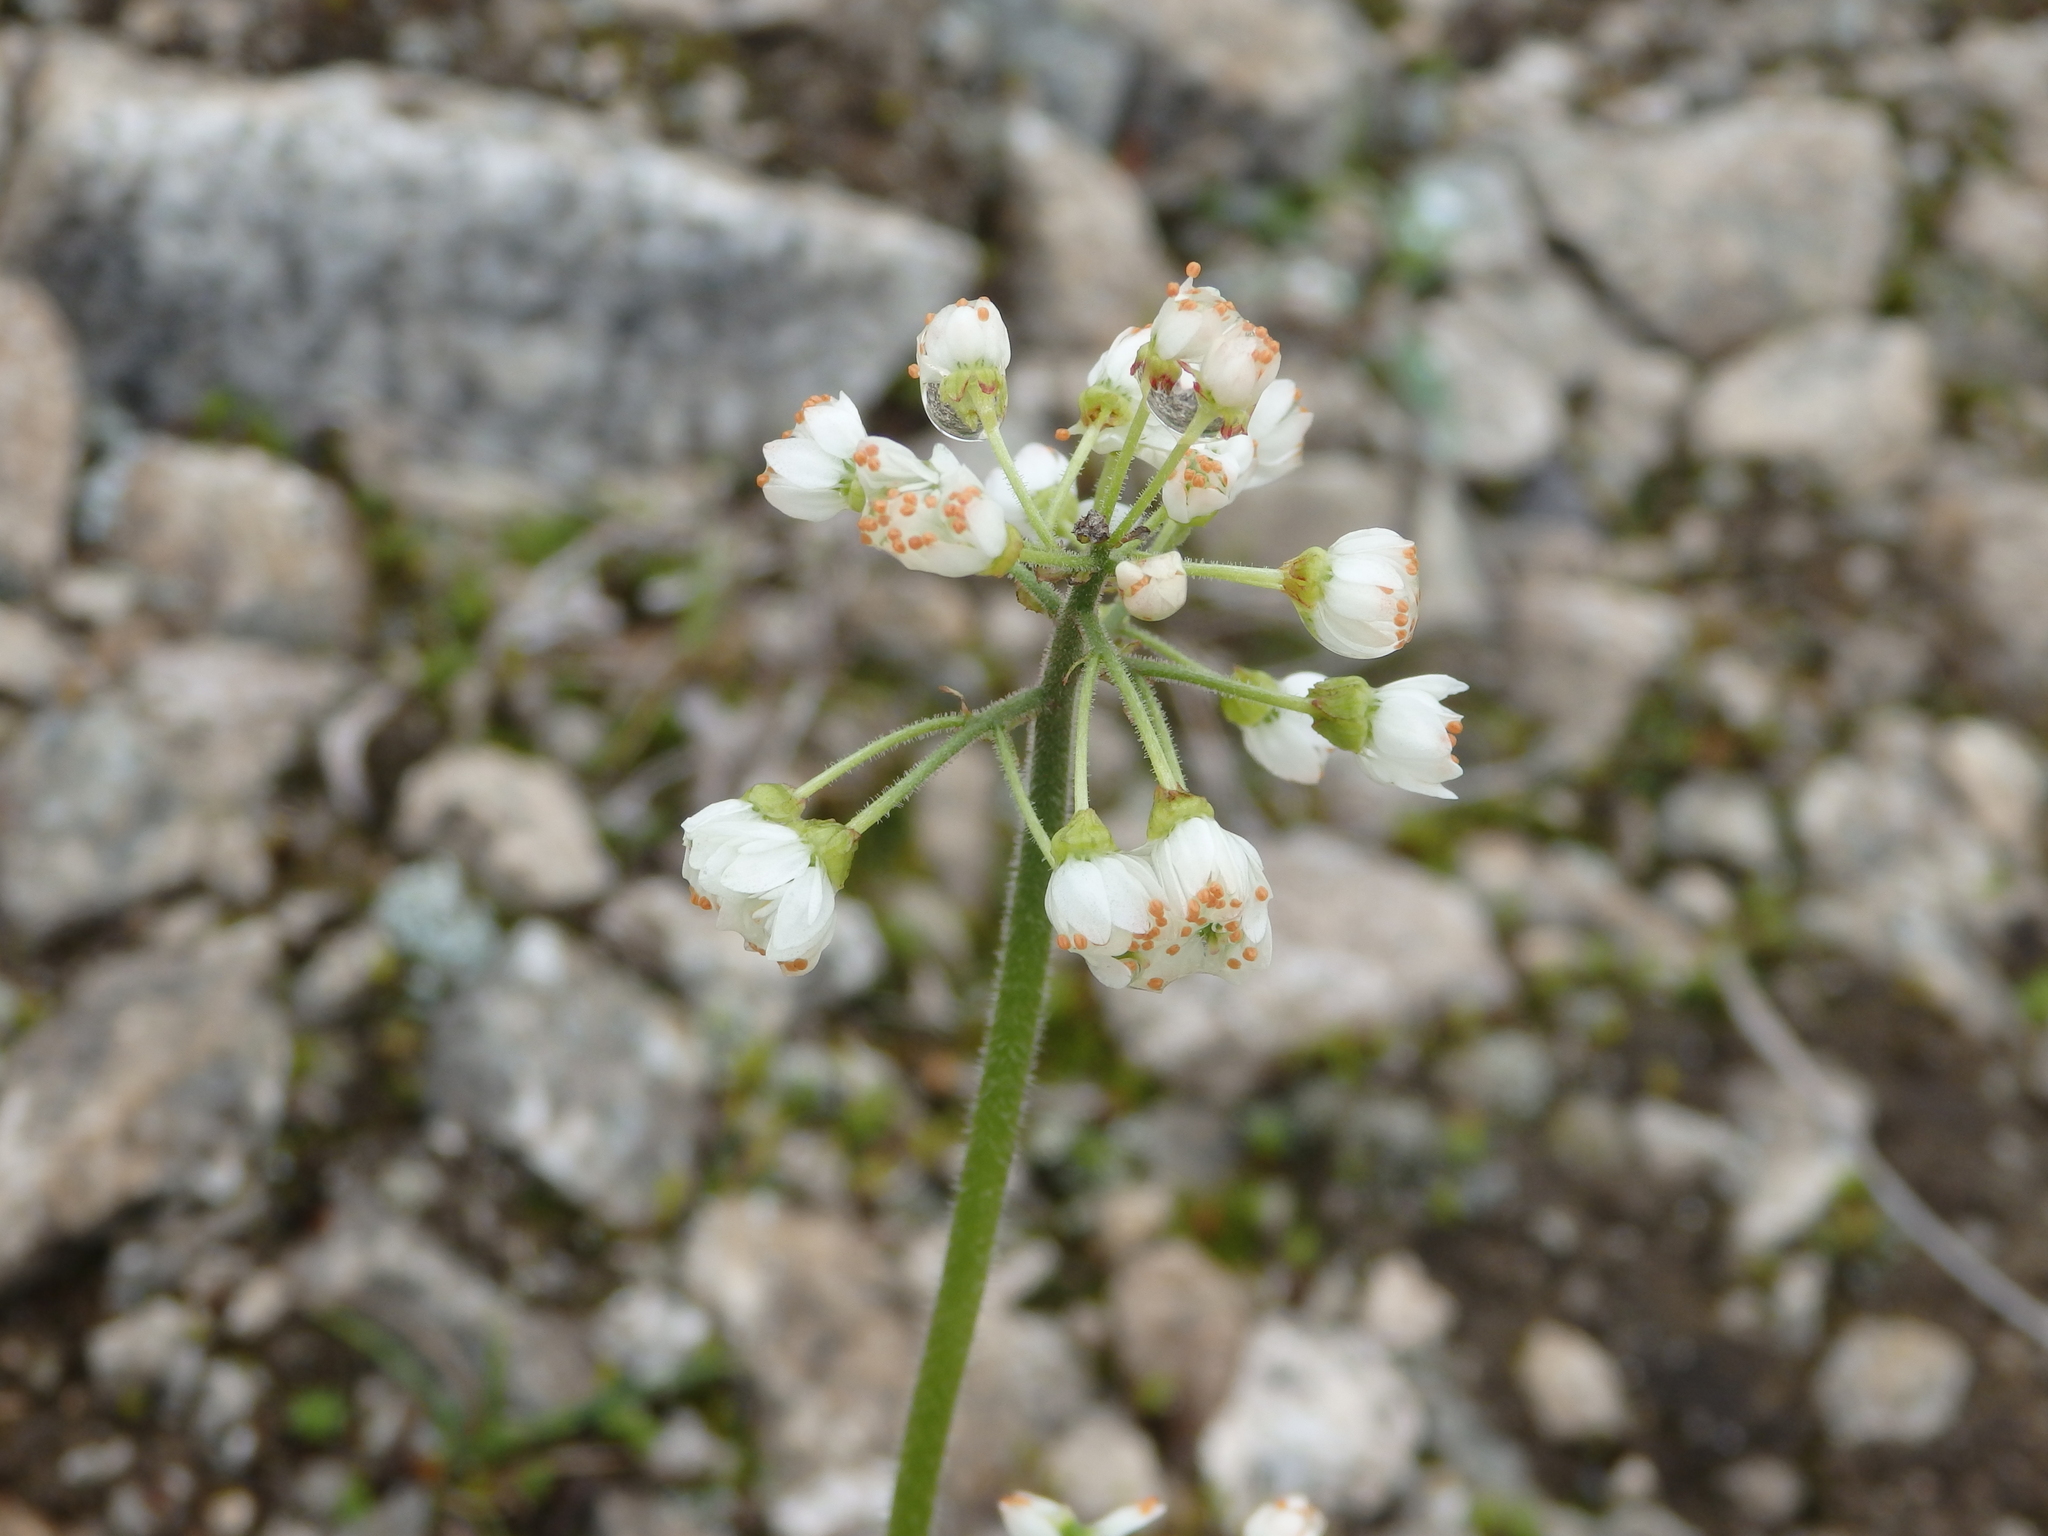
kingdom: Plantae
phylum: Tracheophyta
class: Magnoliopsida
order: Saxifragales
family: Saxifragaceae
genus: Micranthes
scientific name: Micranthes nelsoniana
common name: Nelson's saxifrage
